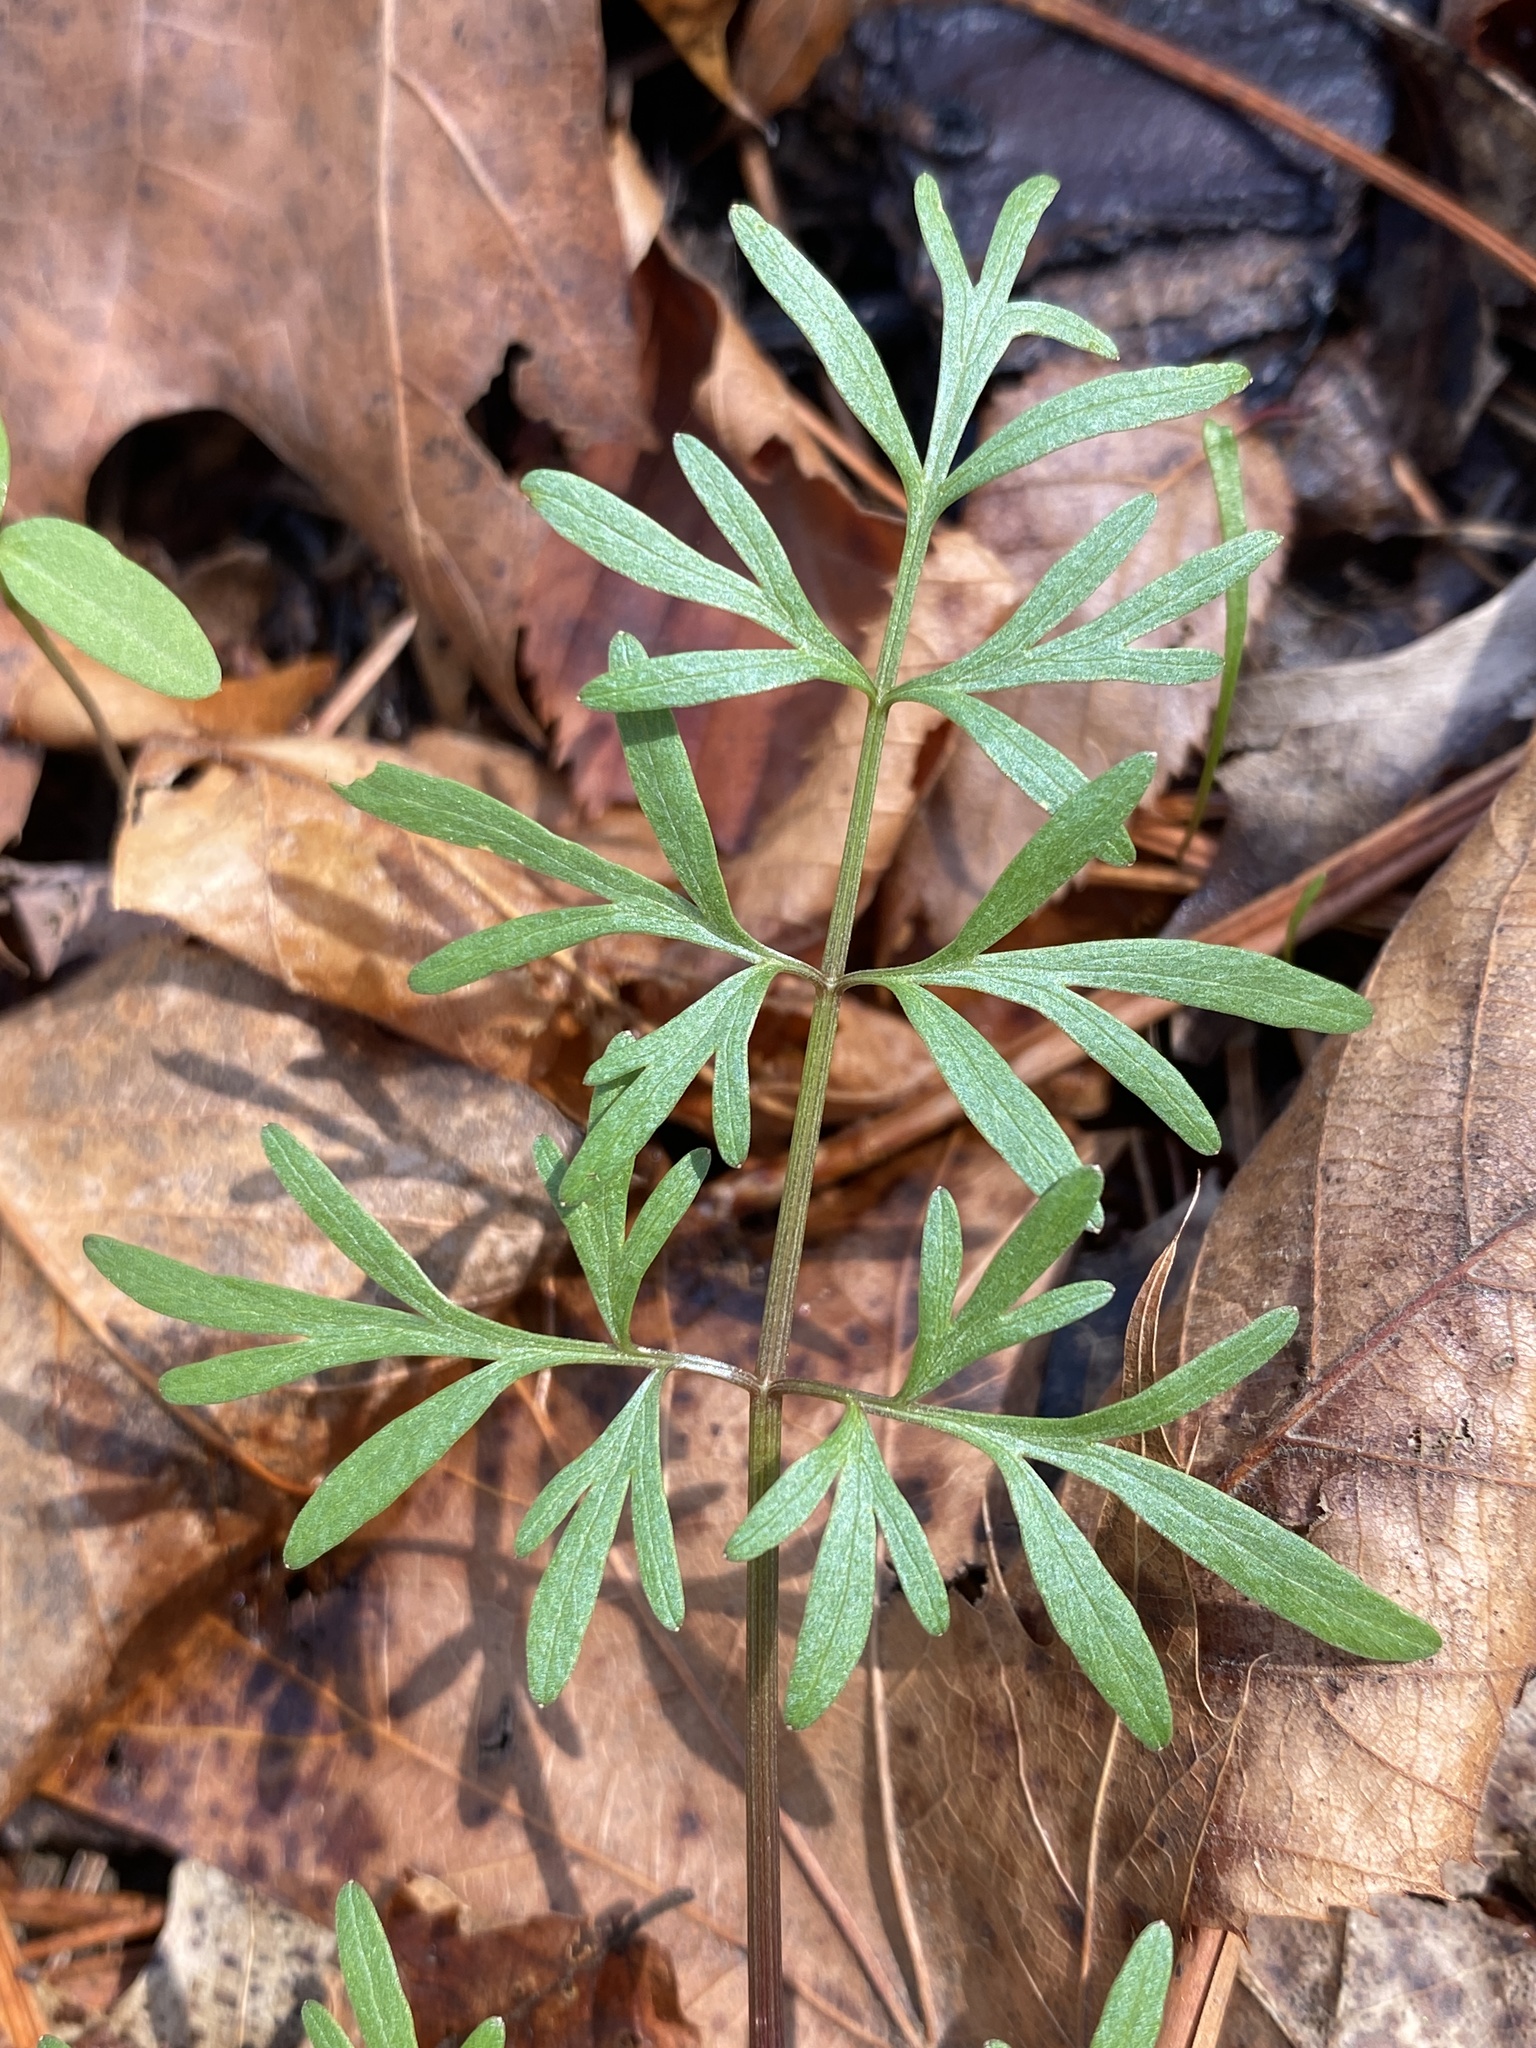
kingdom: Plantae
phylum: Tracheophyta
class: Magnoliopsida
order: Apiales
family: Apiaceae
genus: Perideridia
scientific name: Perideridia americana
